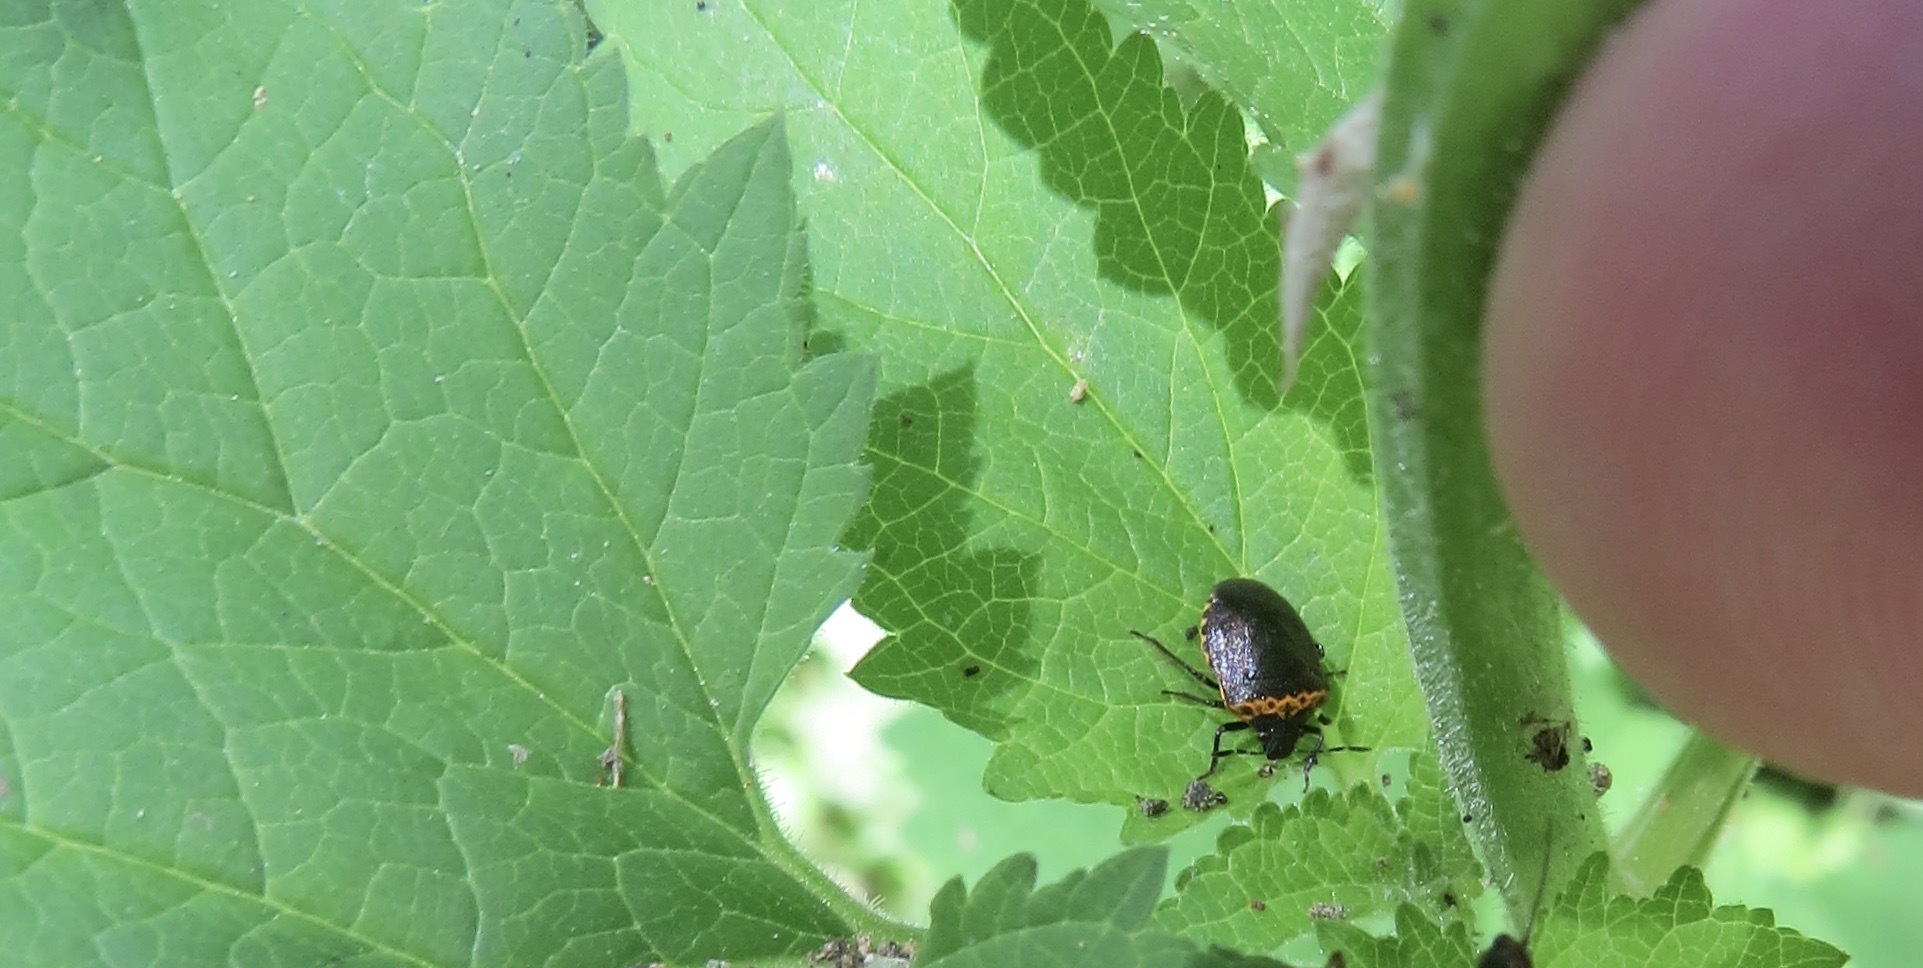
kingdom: Animalia
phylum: Arthropoda
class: Insecta
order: Hemiptera
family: Pentatomidae
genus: Cosmopepla
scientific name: Cosmopepla uhleri
